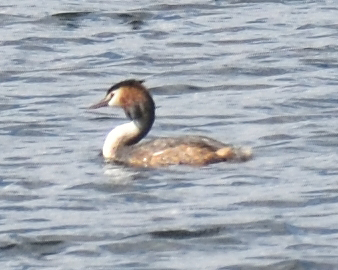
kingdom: Animalia
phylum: Chordata
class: Aves
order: Podicipediformes
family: Podicipedidae
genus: Podiceps
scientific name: Podiceps cristatus
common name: Great crested grebe
